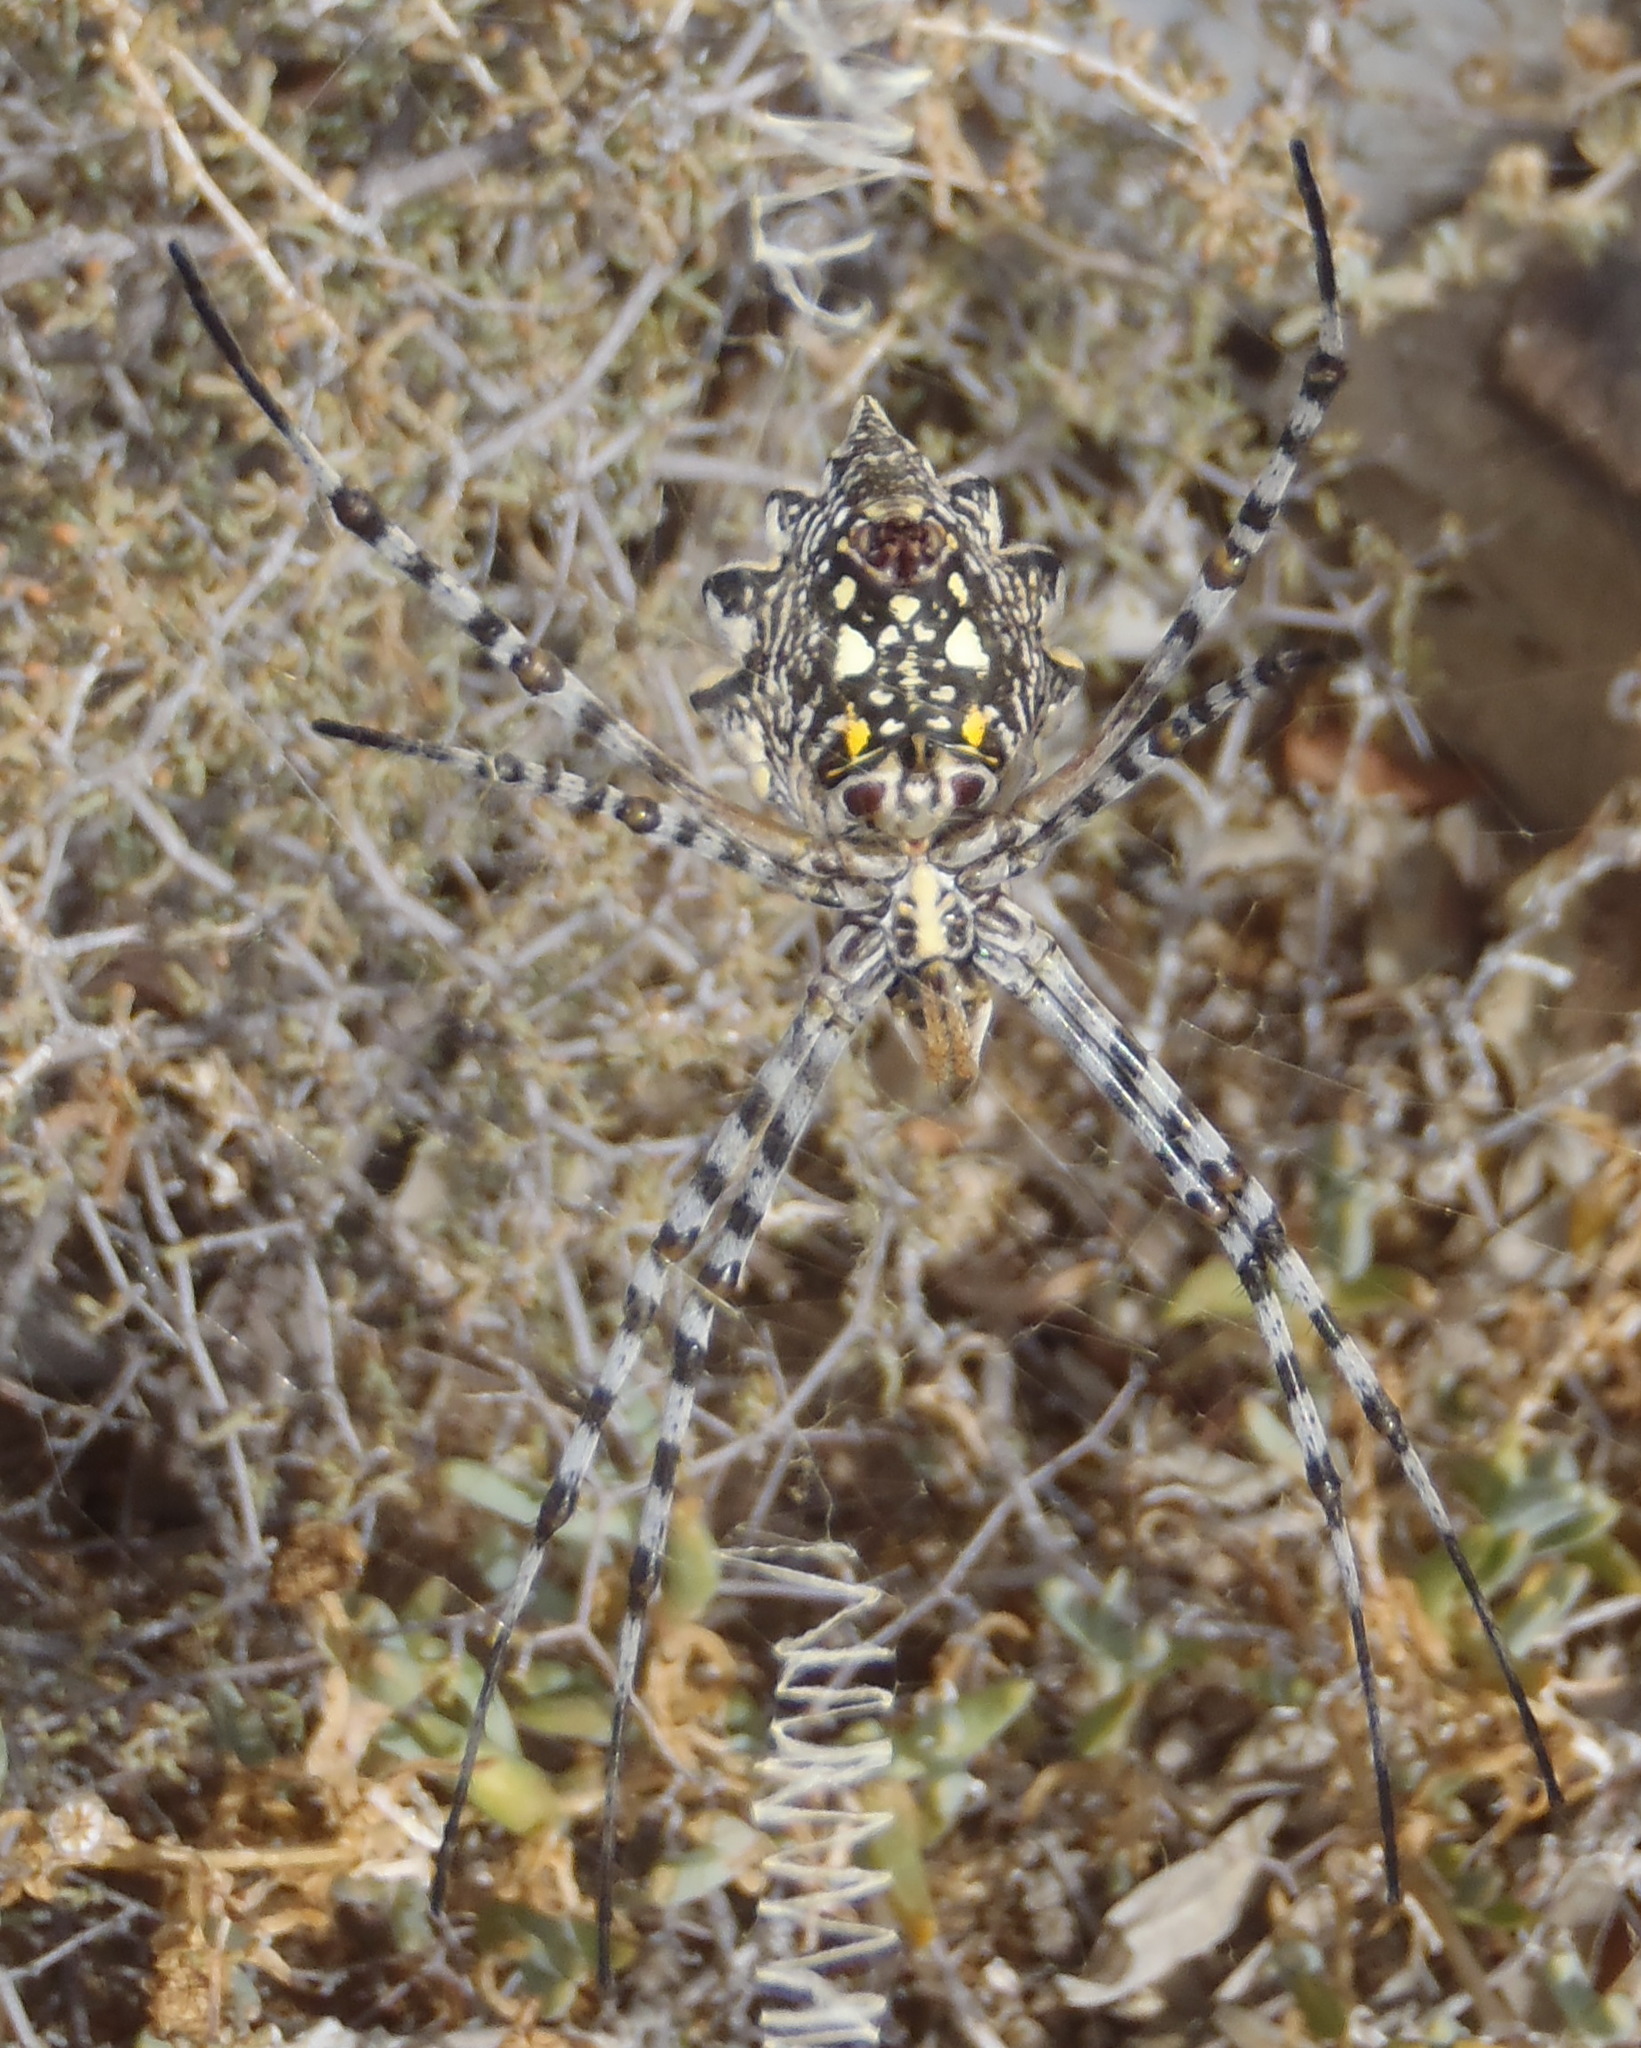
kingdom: Animalia
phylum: Arthropoda
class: Arachnida
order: Araneae
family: Araneidae
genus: Argiope
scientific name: Argiope australis
